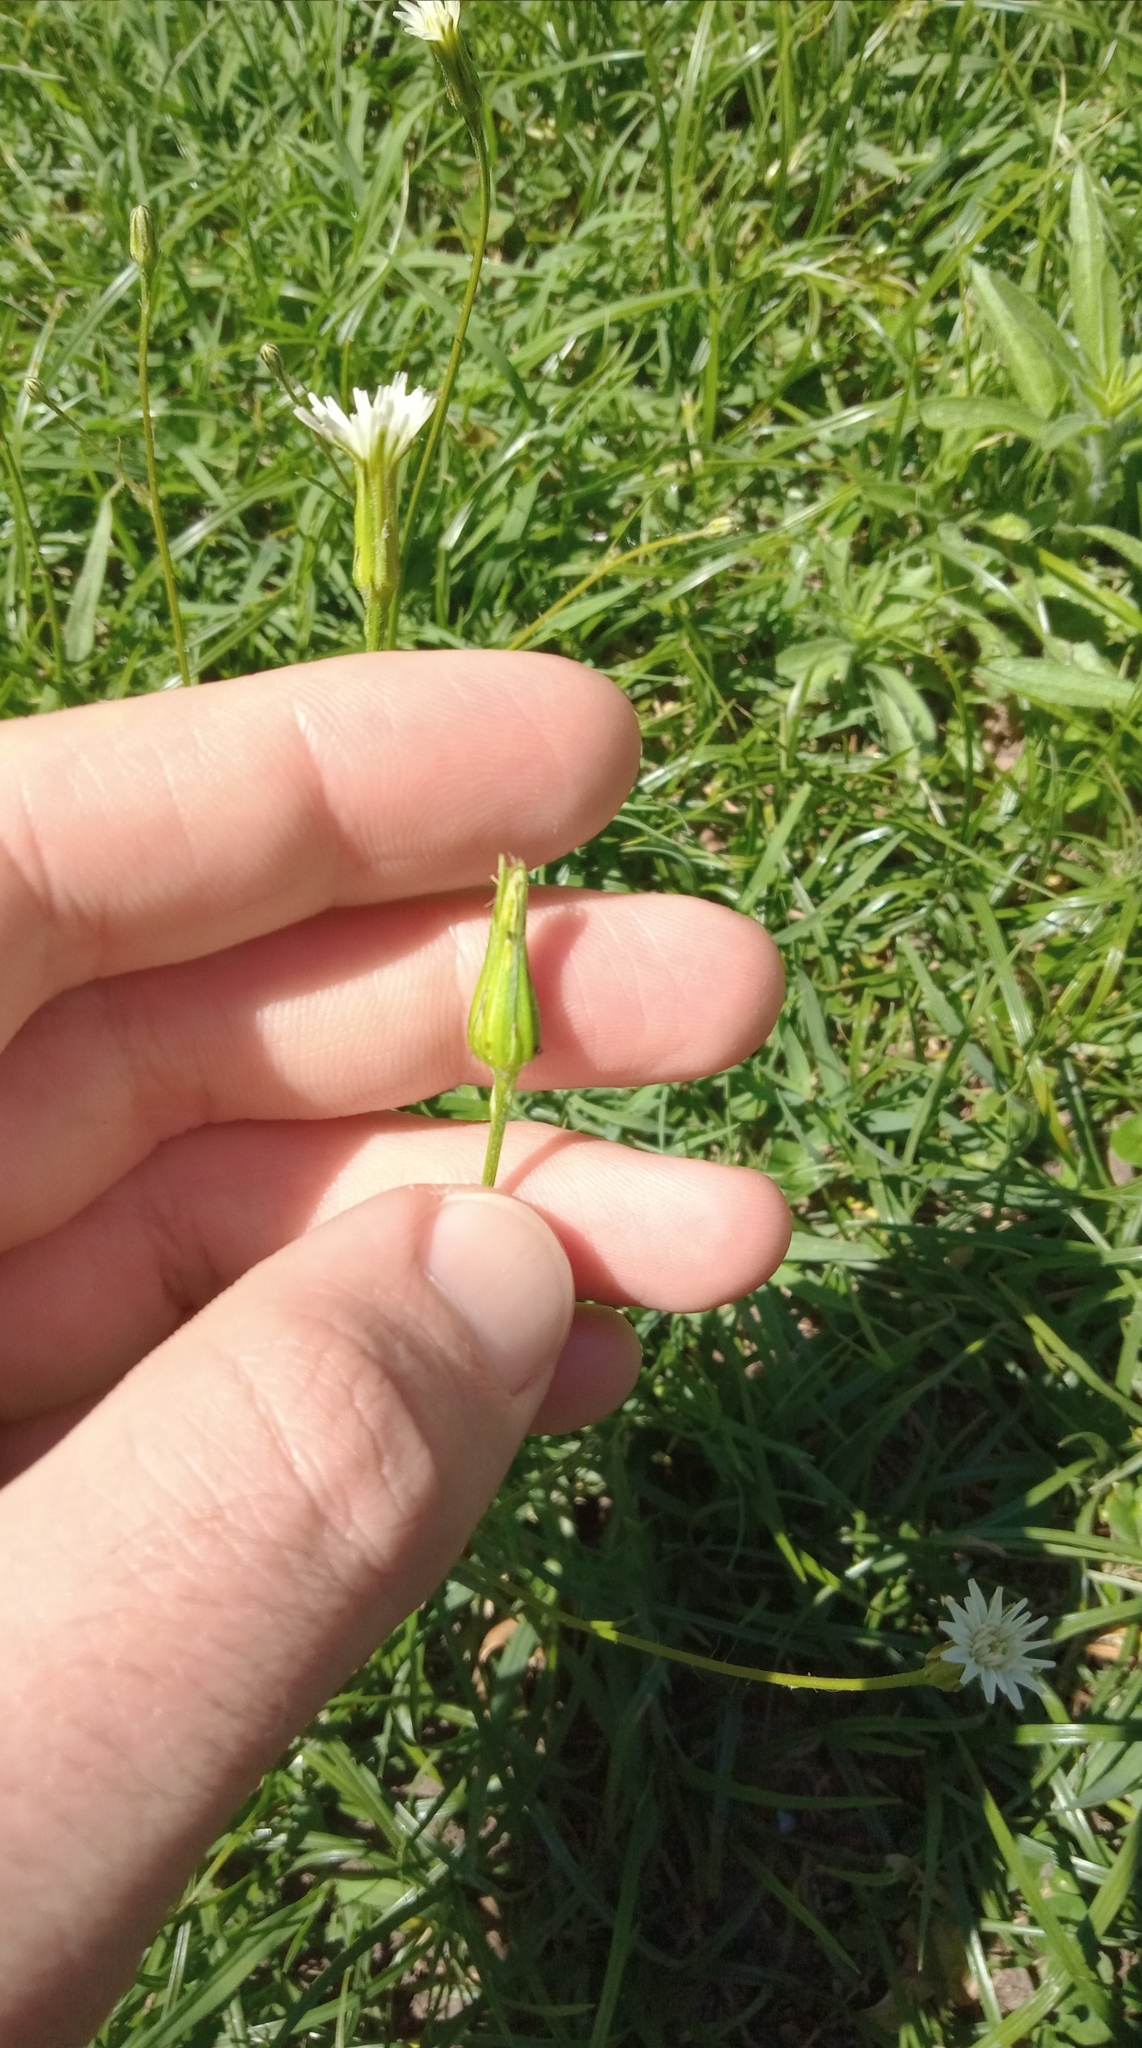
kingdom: Plantae
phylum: Tracheophyta
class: Magnoliopsida
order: Asterales
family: Asteraceae
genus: Hypochaeris
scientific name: Hypochaeris albiflora
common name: White flatweed
